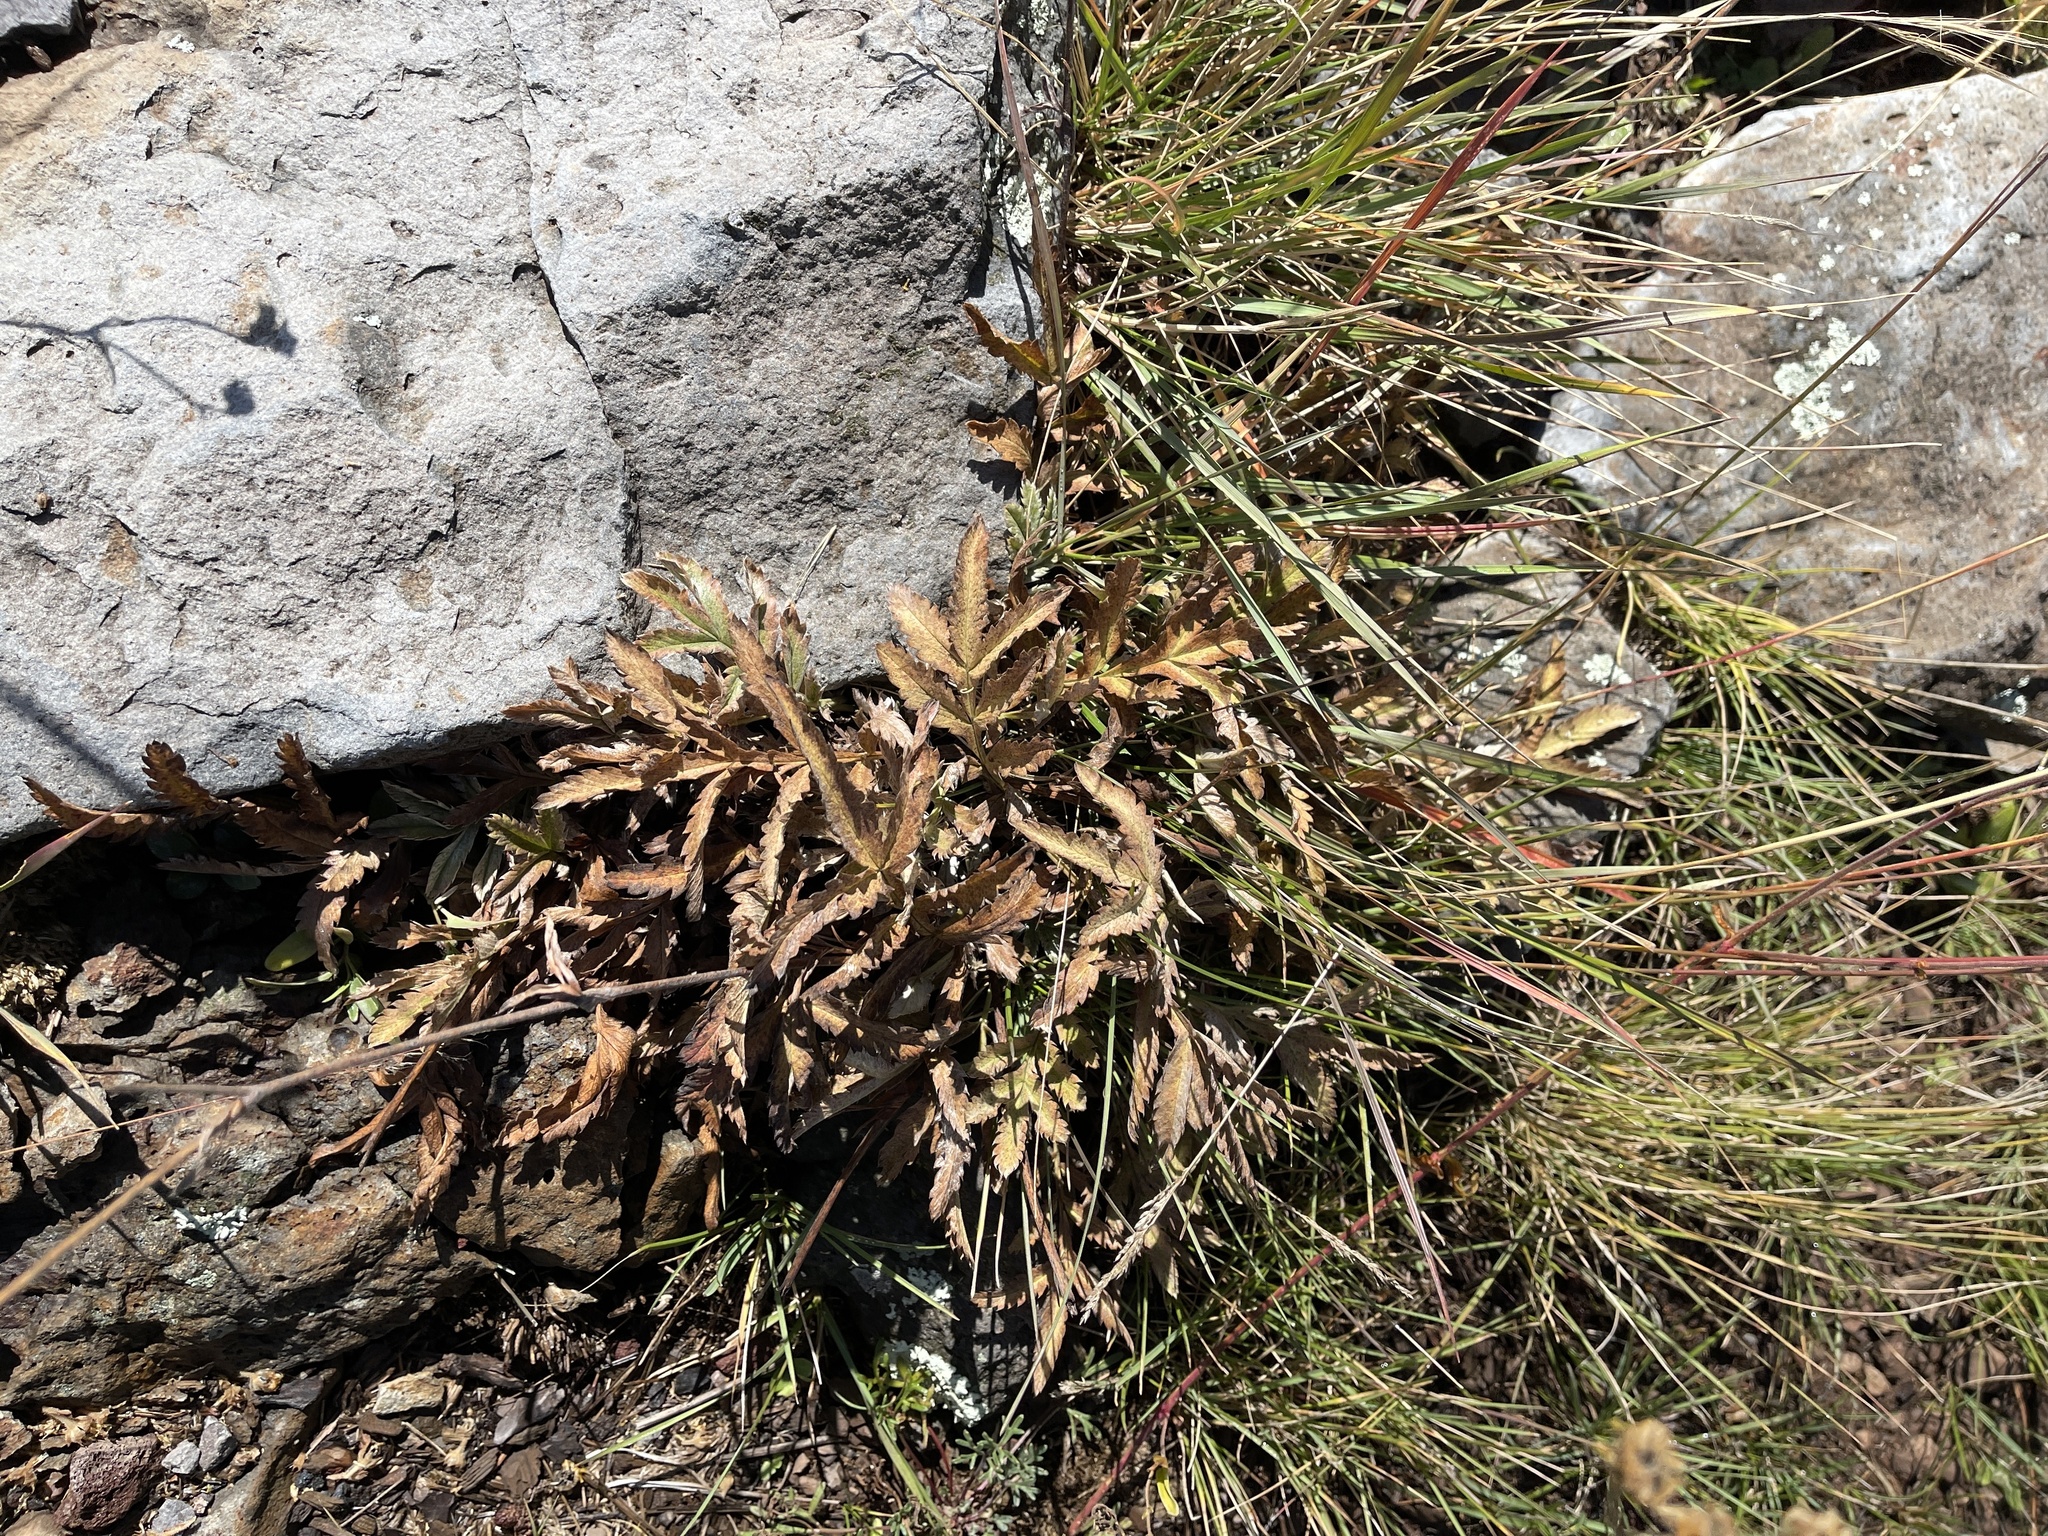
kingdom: Plantae
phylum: Tracheophyta
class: Magnoliopsida
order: Rosales
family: Rosaceae
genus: Potentilla
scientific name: Potentilla hippiana
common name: Woolly cinquefoil
